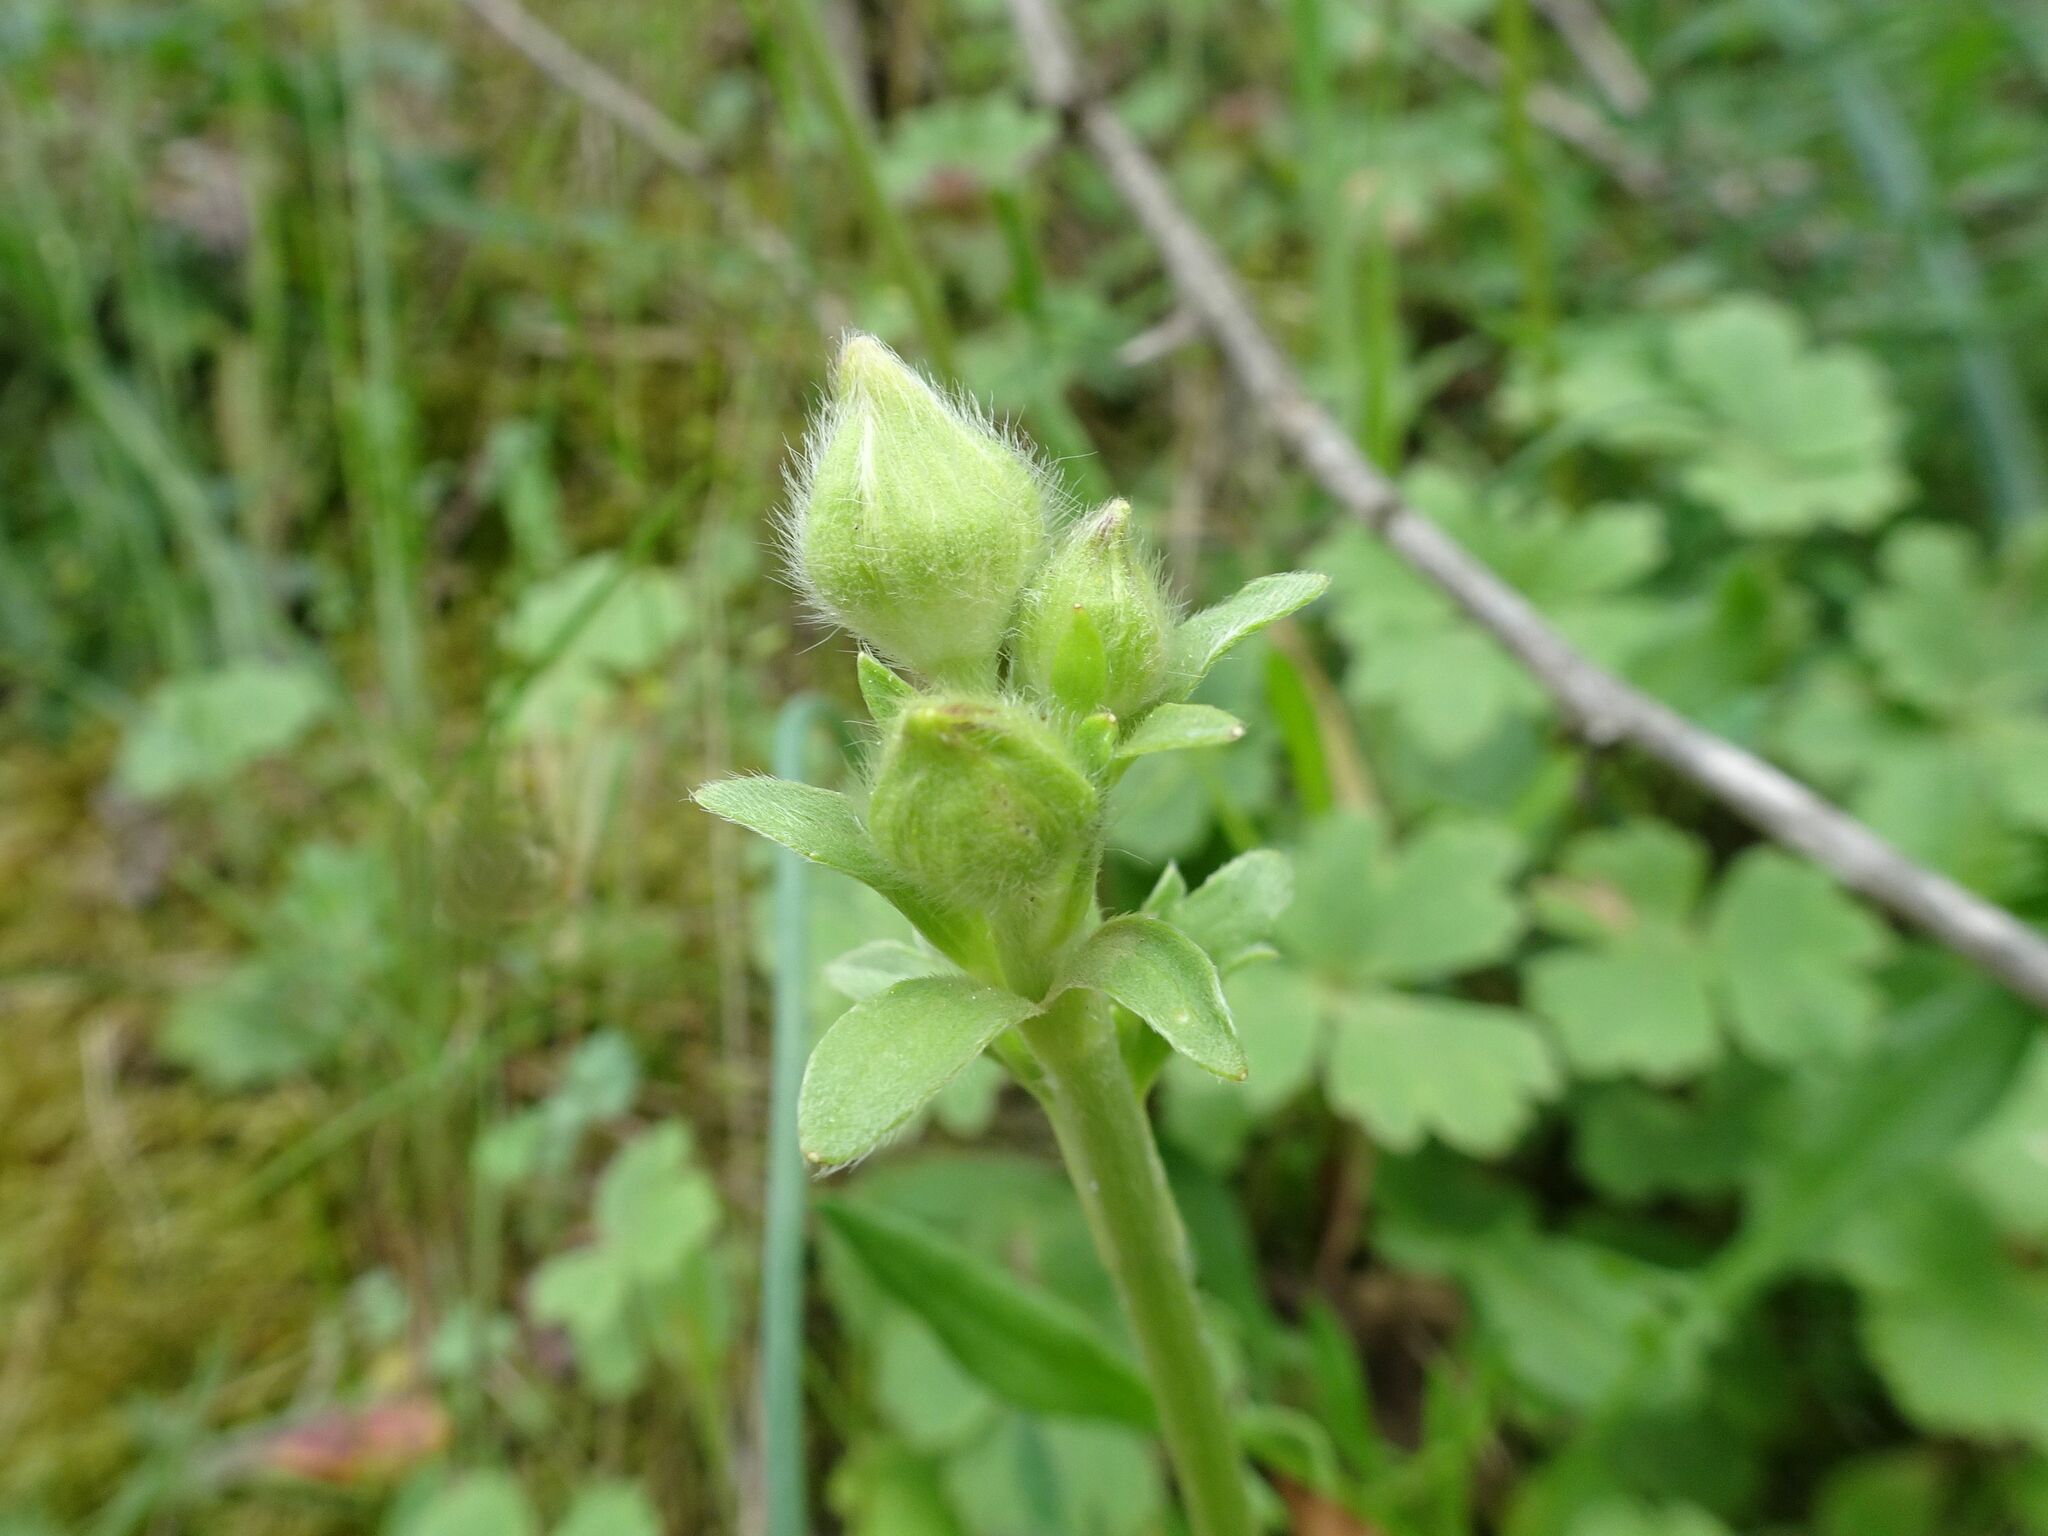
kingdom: Plantae
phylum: Tracheophyta
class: Magnoliopsida
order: Saxifragales
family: Saxifragaceae
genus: Saxifraga
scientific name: Saxifraga granulata
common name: Meadow saxifrage
